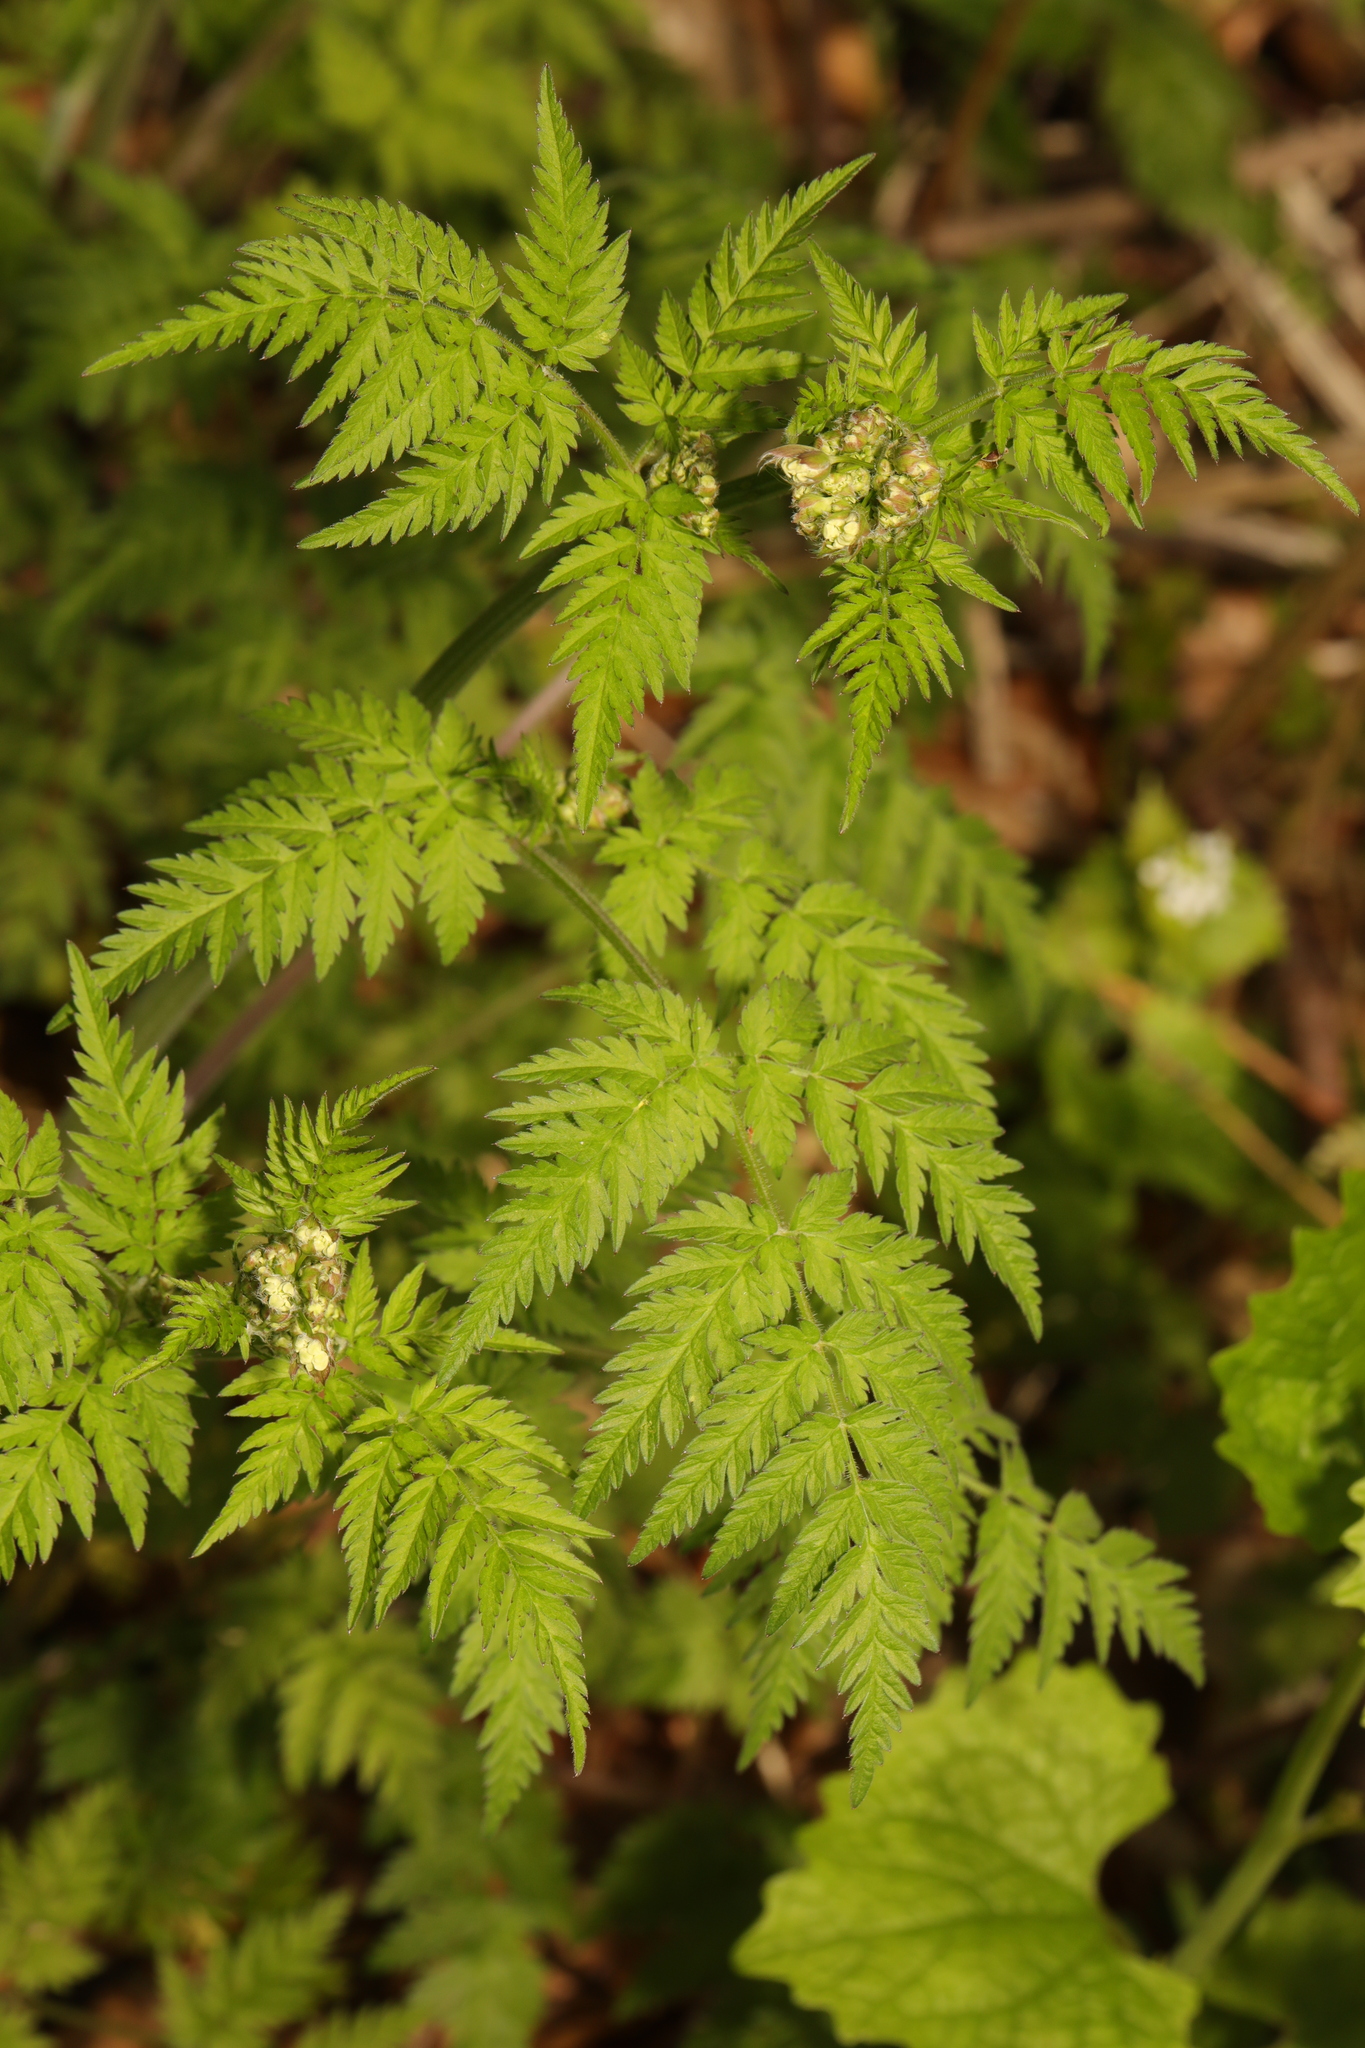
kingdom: Plantae
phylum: Tracheophyta
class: Magnoliopsida
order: Apiales
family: Apiaceae
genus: Anthriscus
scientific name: Anthriscus sylvestris
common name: Cow parsley
